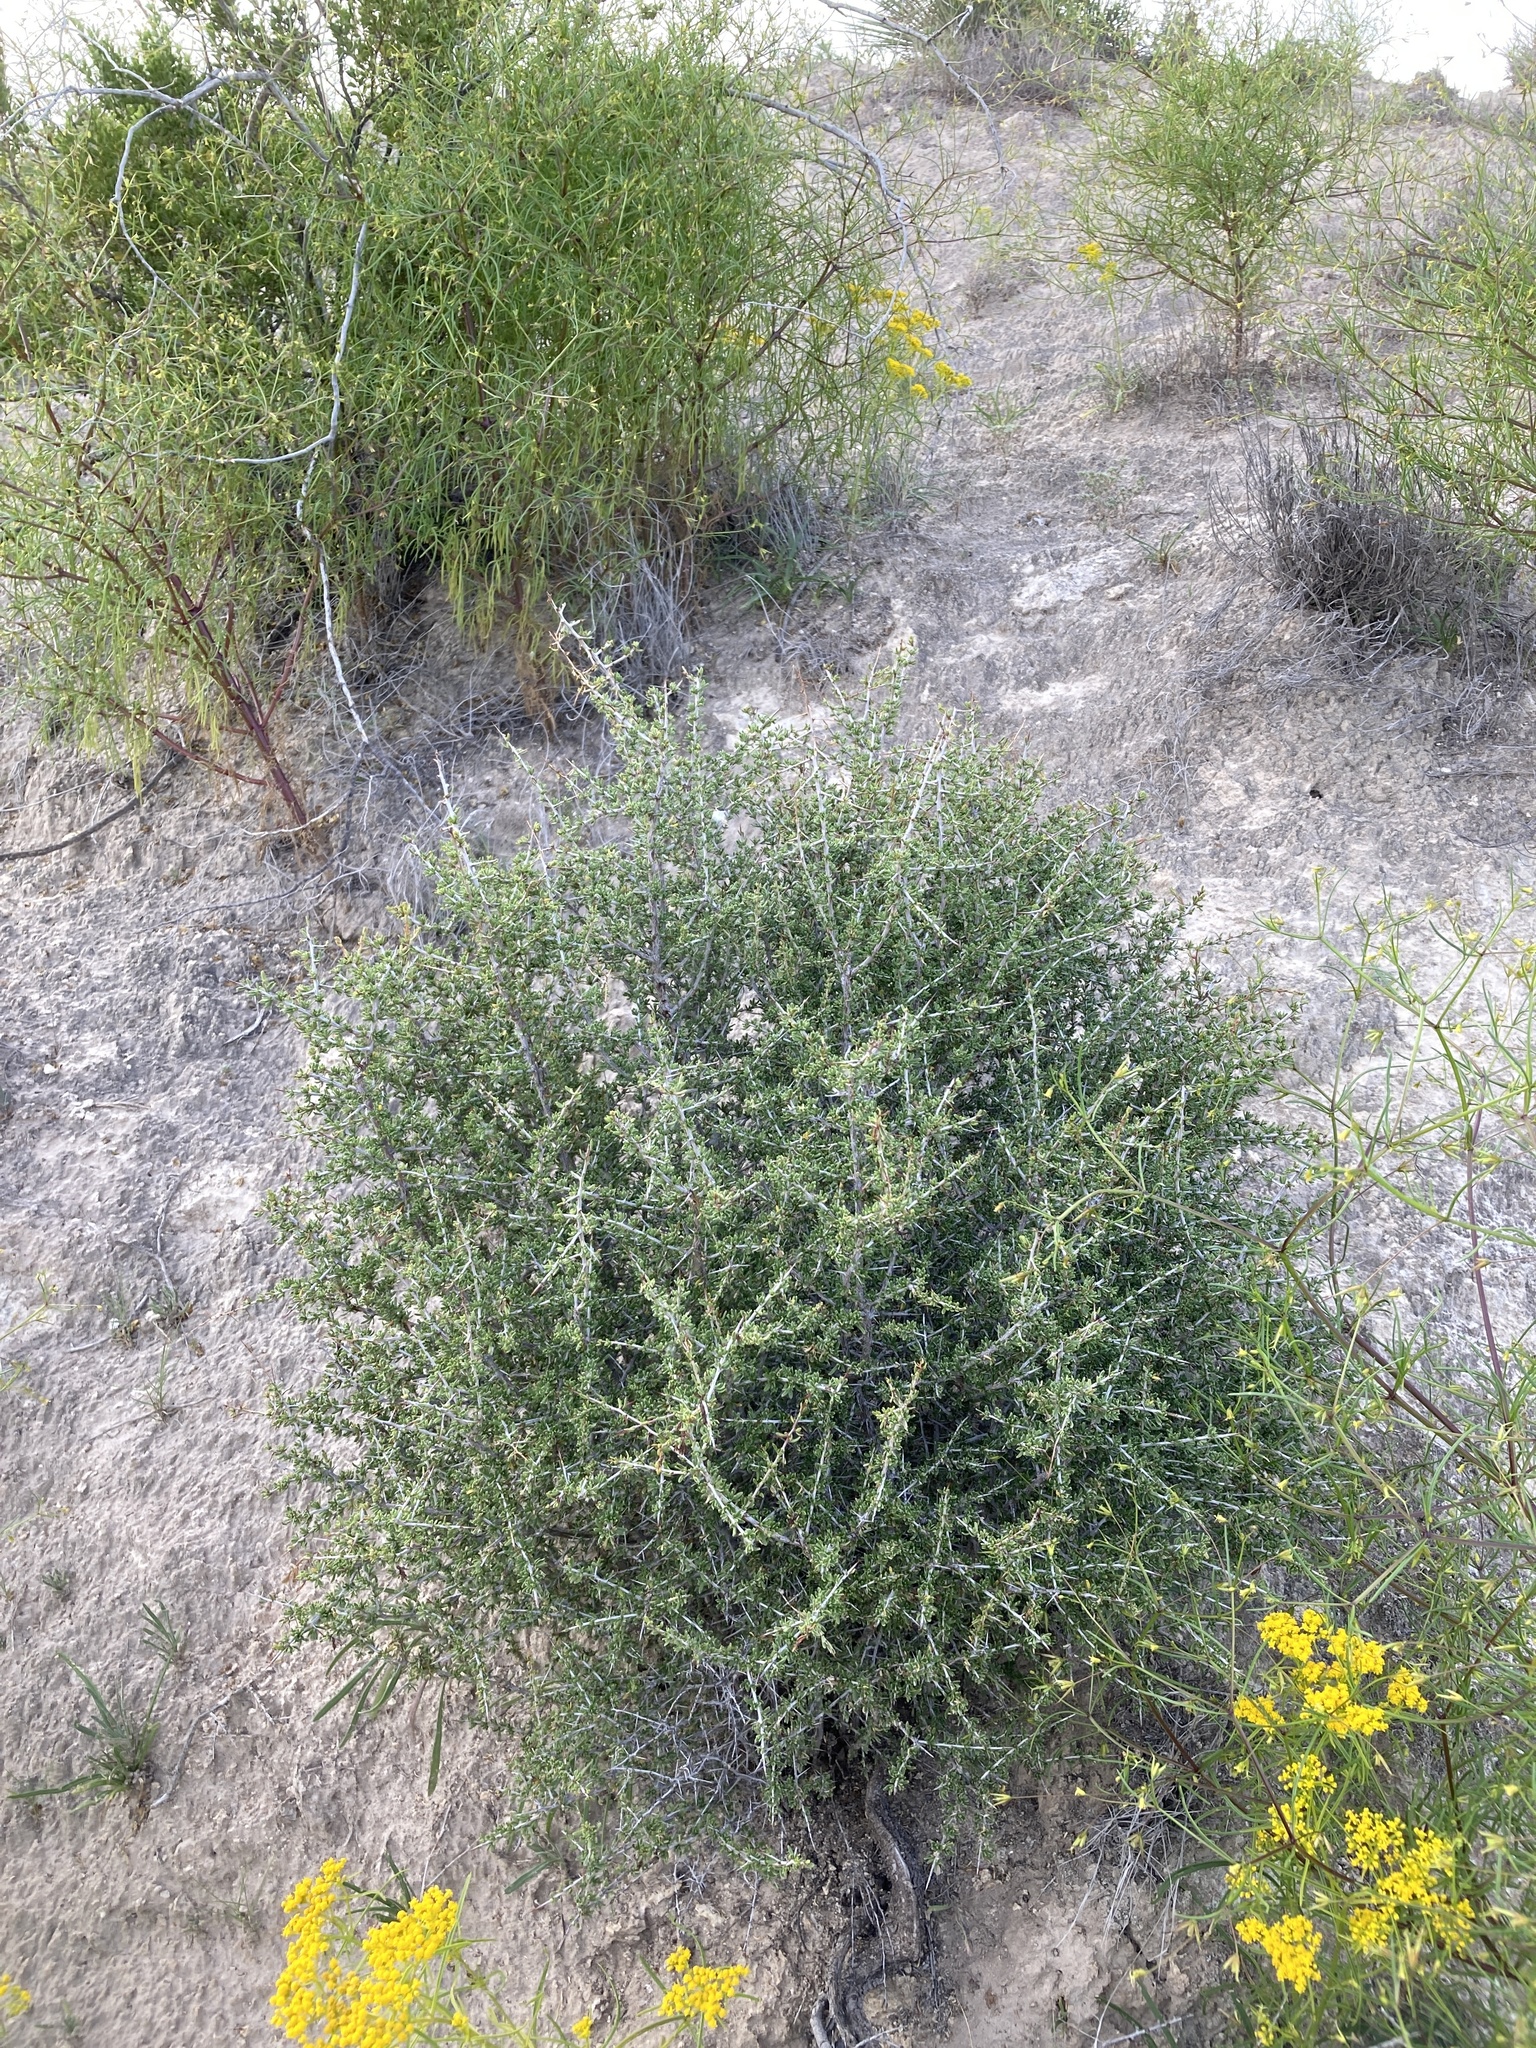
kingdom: Plantae
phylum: Tracheophyta
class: Magnoliopsida
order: Rosales
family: Rhamnaceae
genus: Condalia
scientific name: Condalia ericoides
